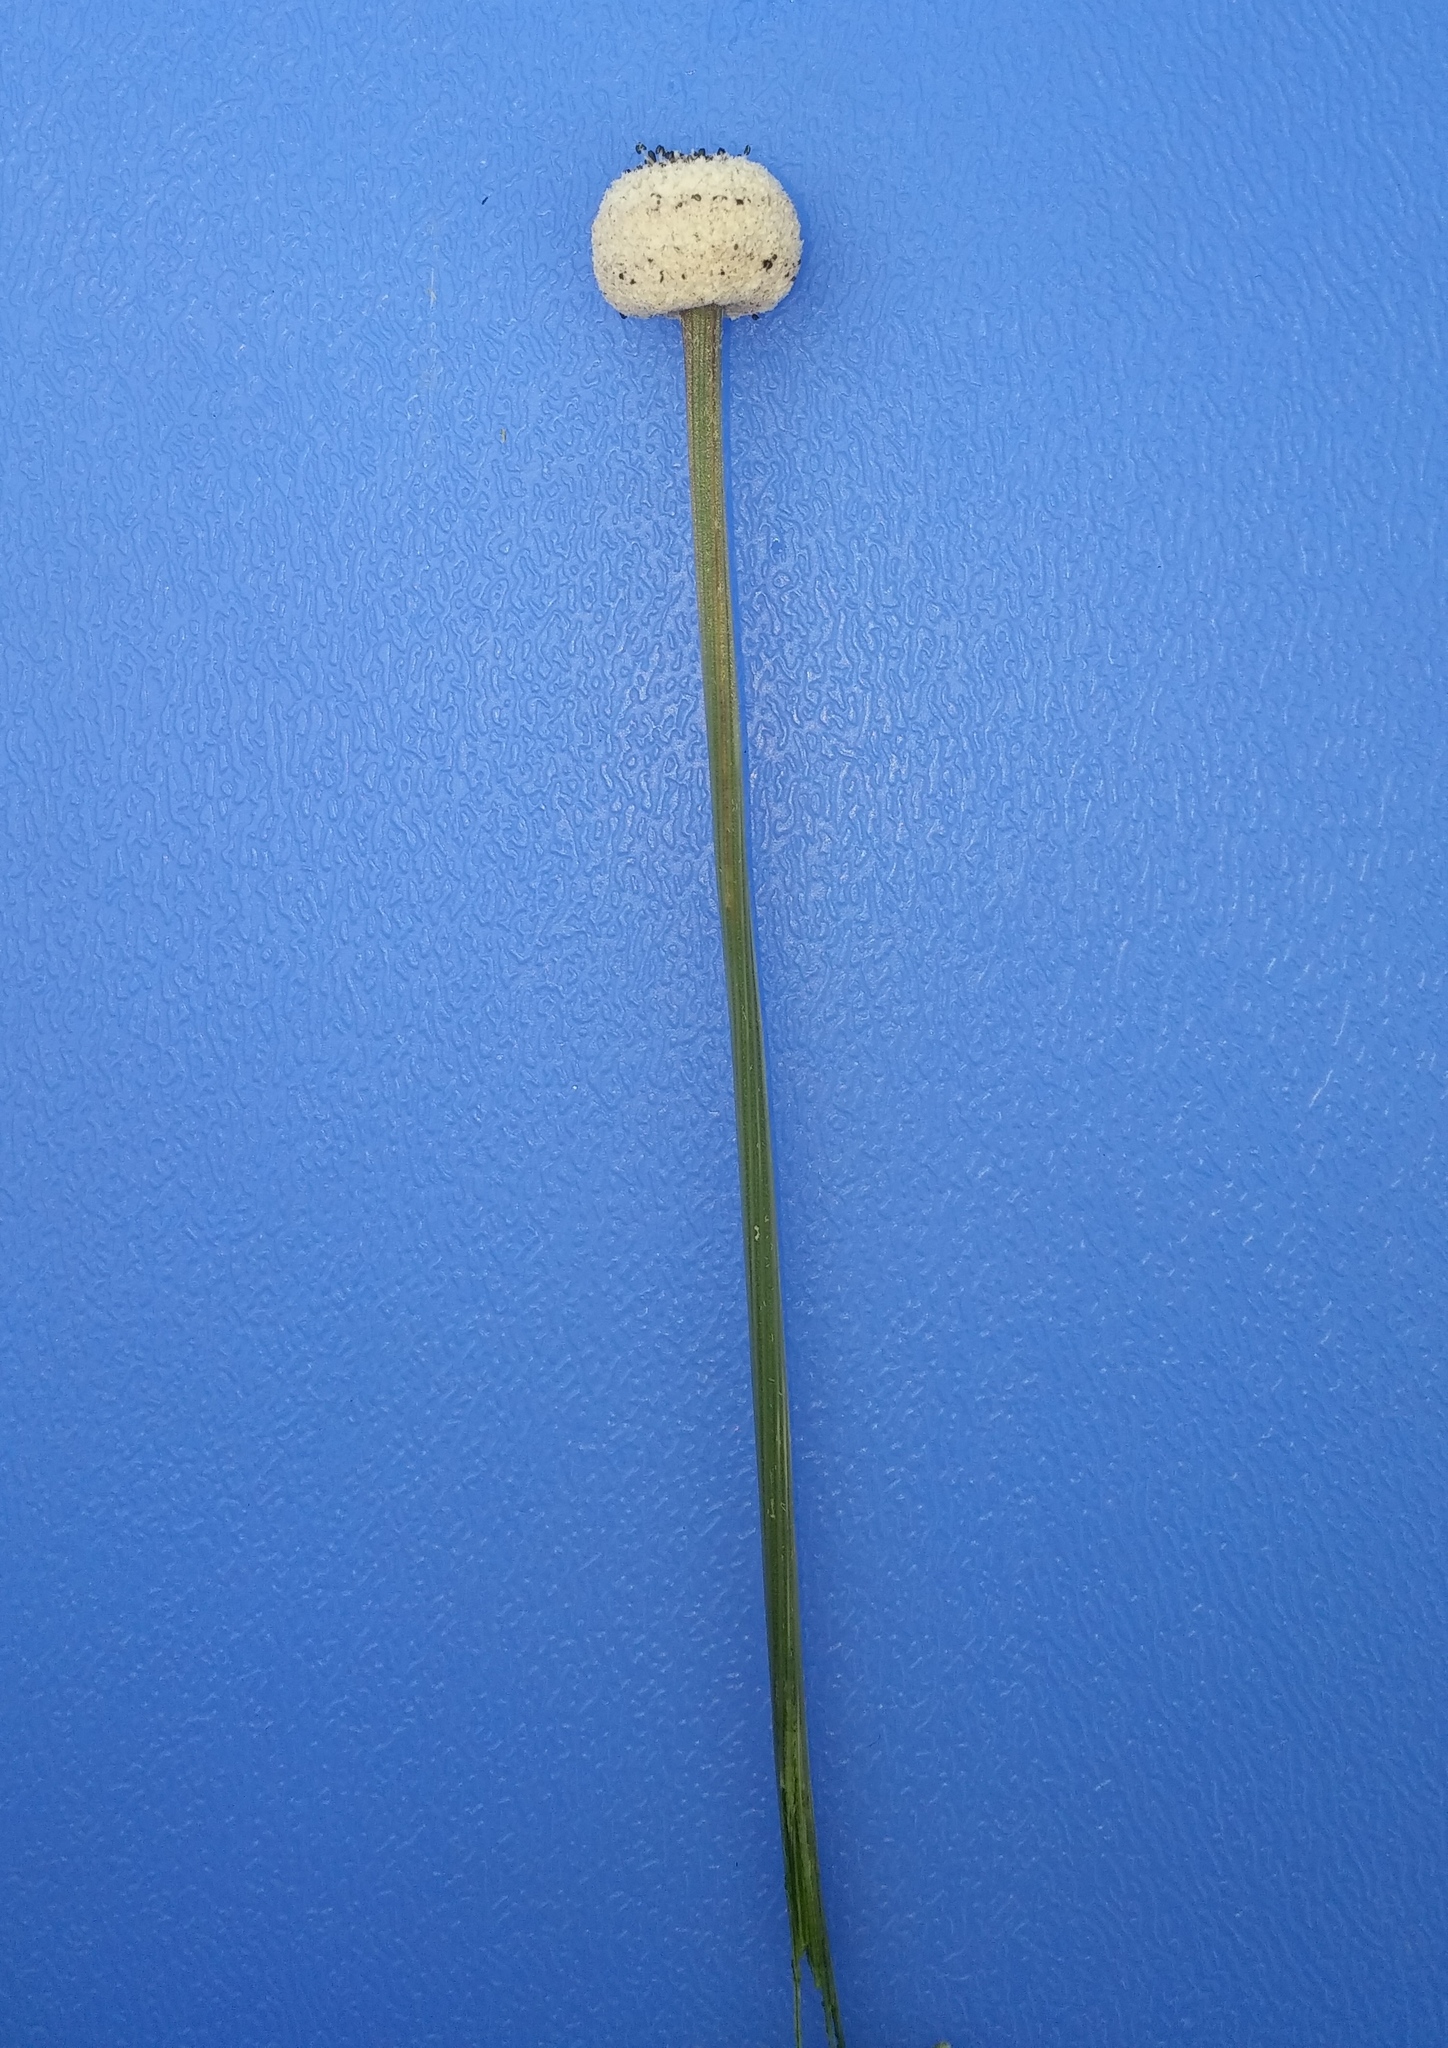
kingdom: Plantae
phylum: Tracheophyta
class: Liliopsida
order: Poales
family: Eriocaulaceae
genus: Eriocaulon
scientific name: Eriocaulon decangulare
